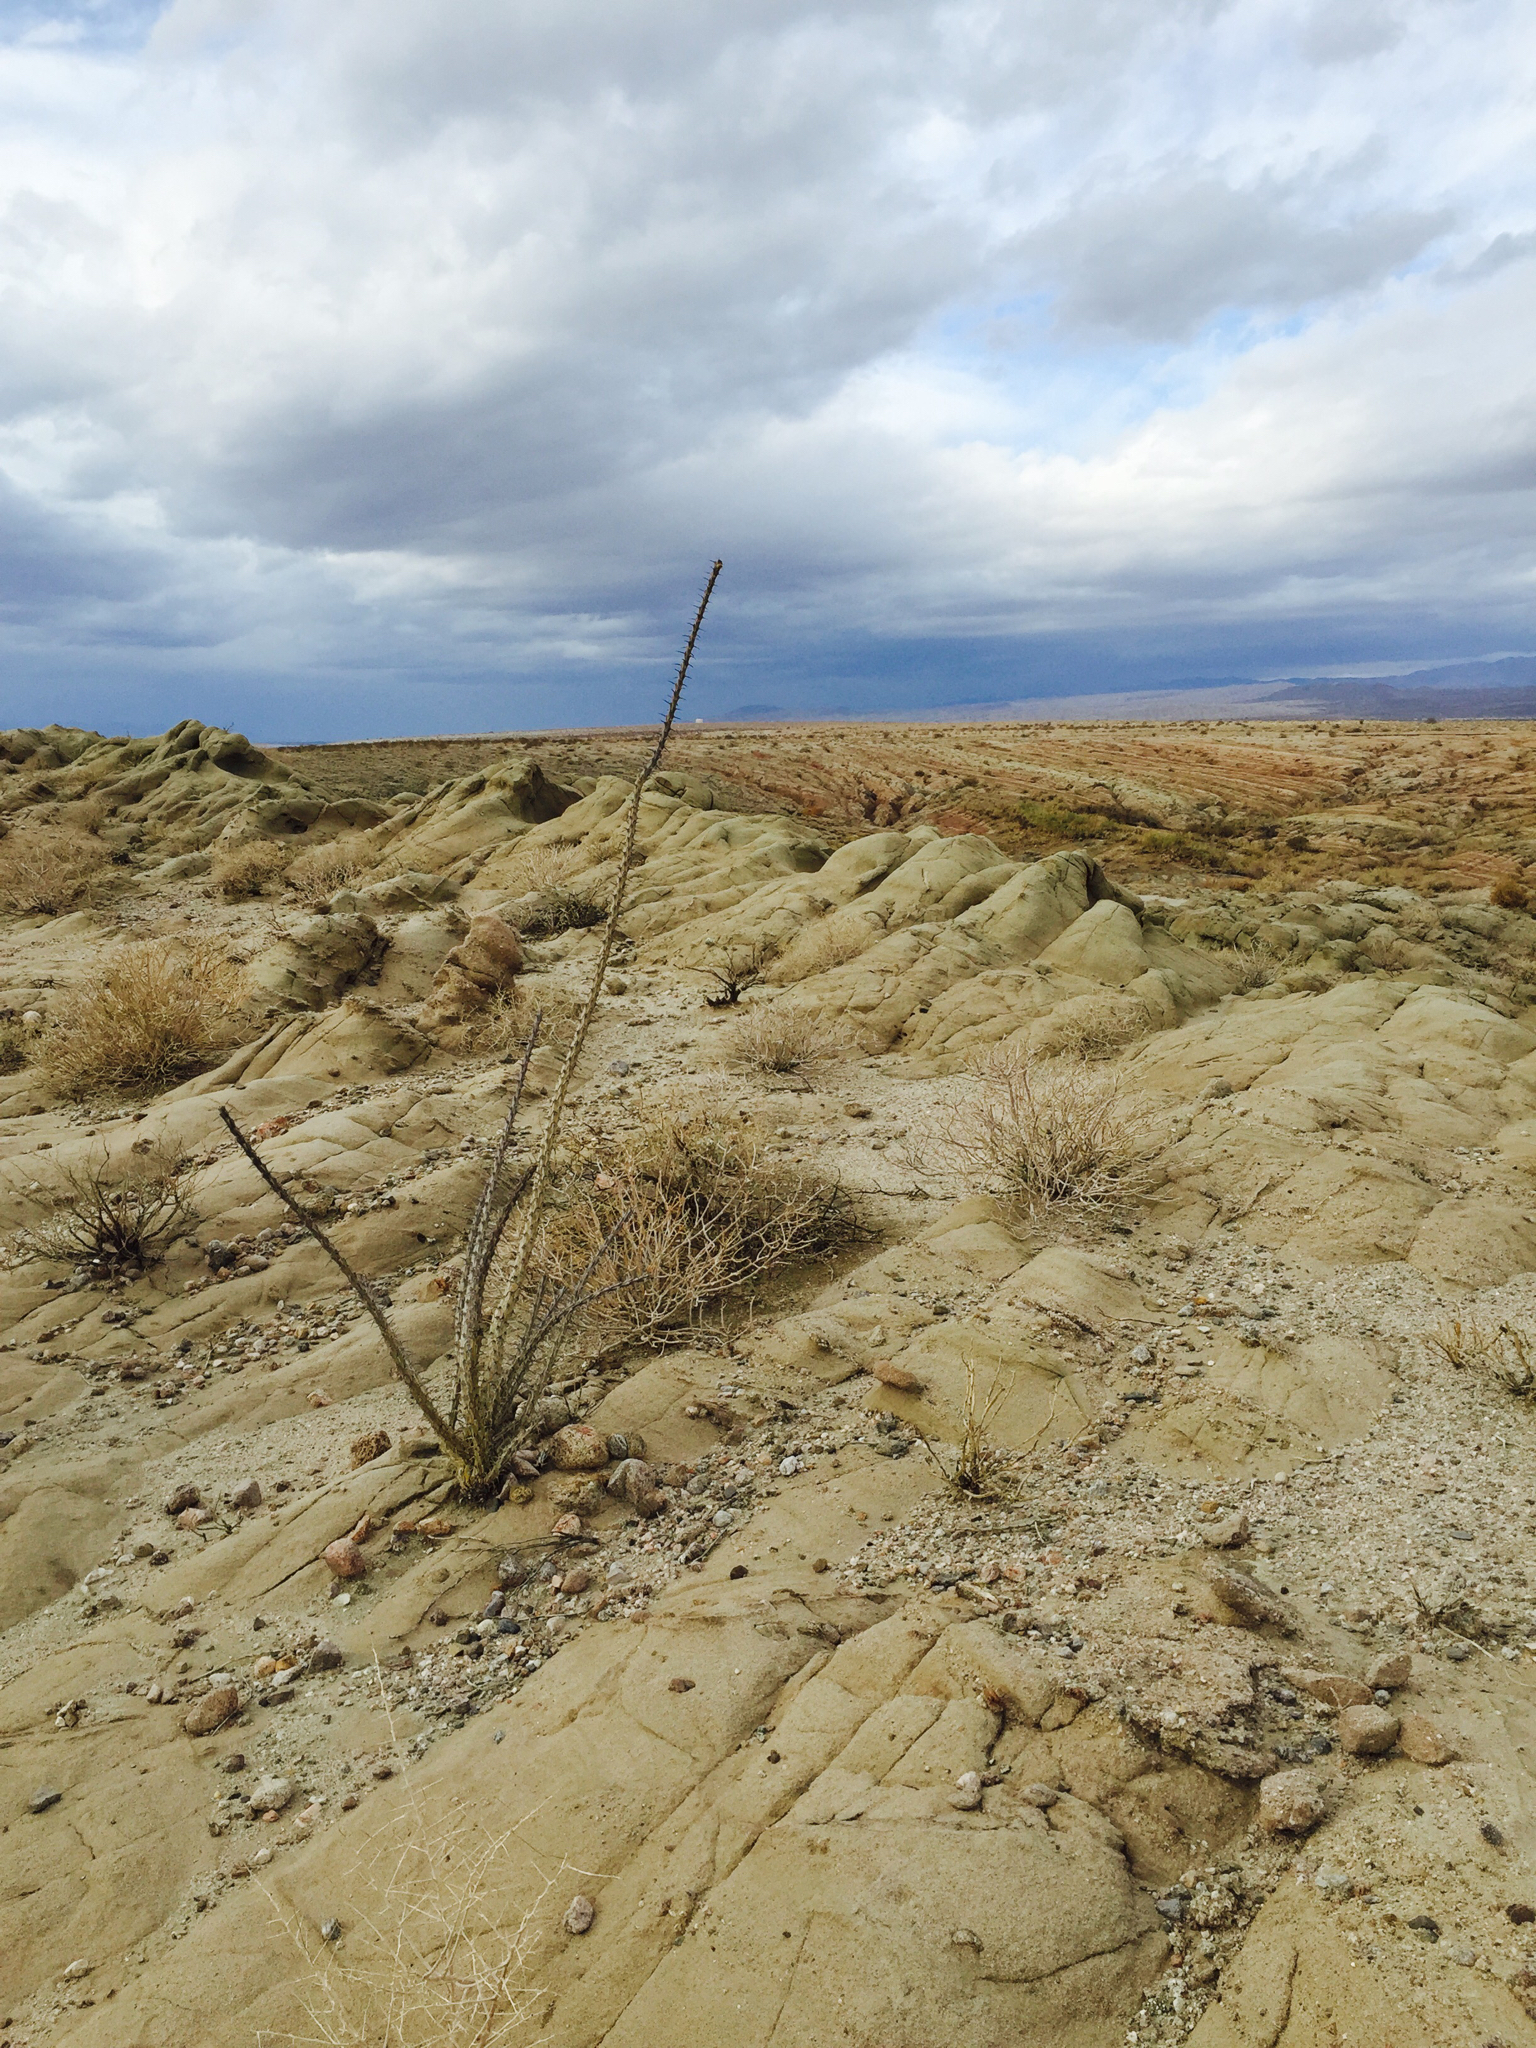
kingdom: Plantae
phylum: Tracheophyta
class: Magnoliopsida
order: Ericales
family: Fouquieriaceae
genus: Fouquieria
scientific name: Fouquieria splendens
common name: Vine-cactus
